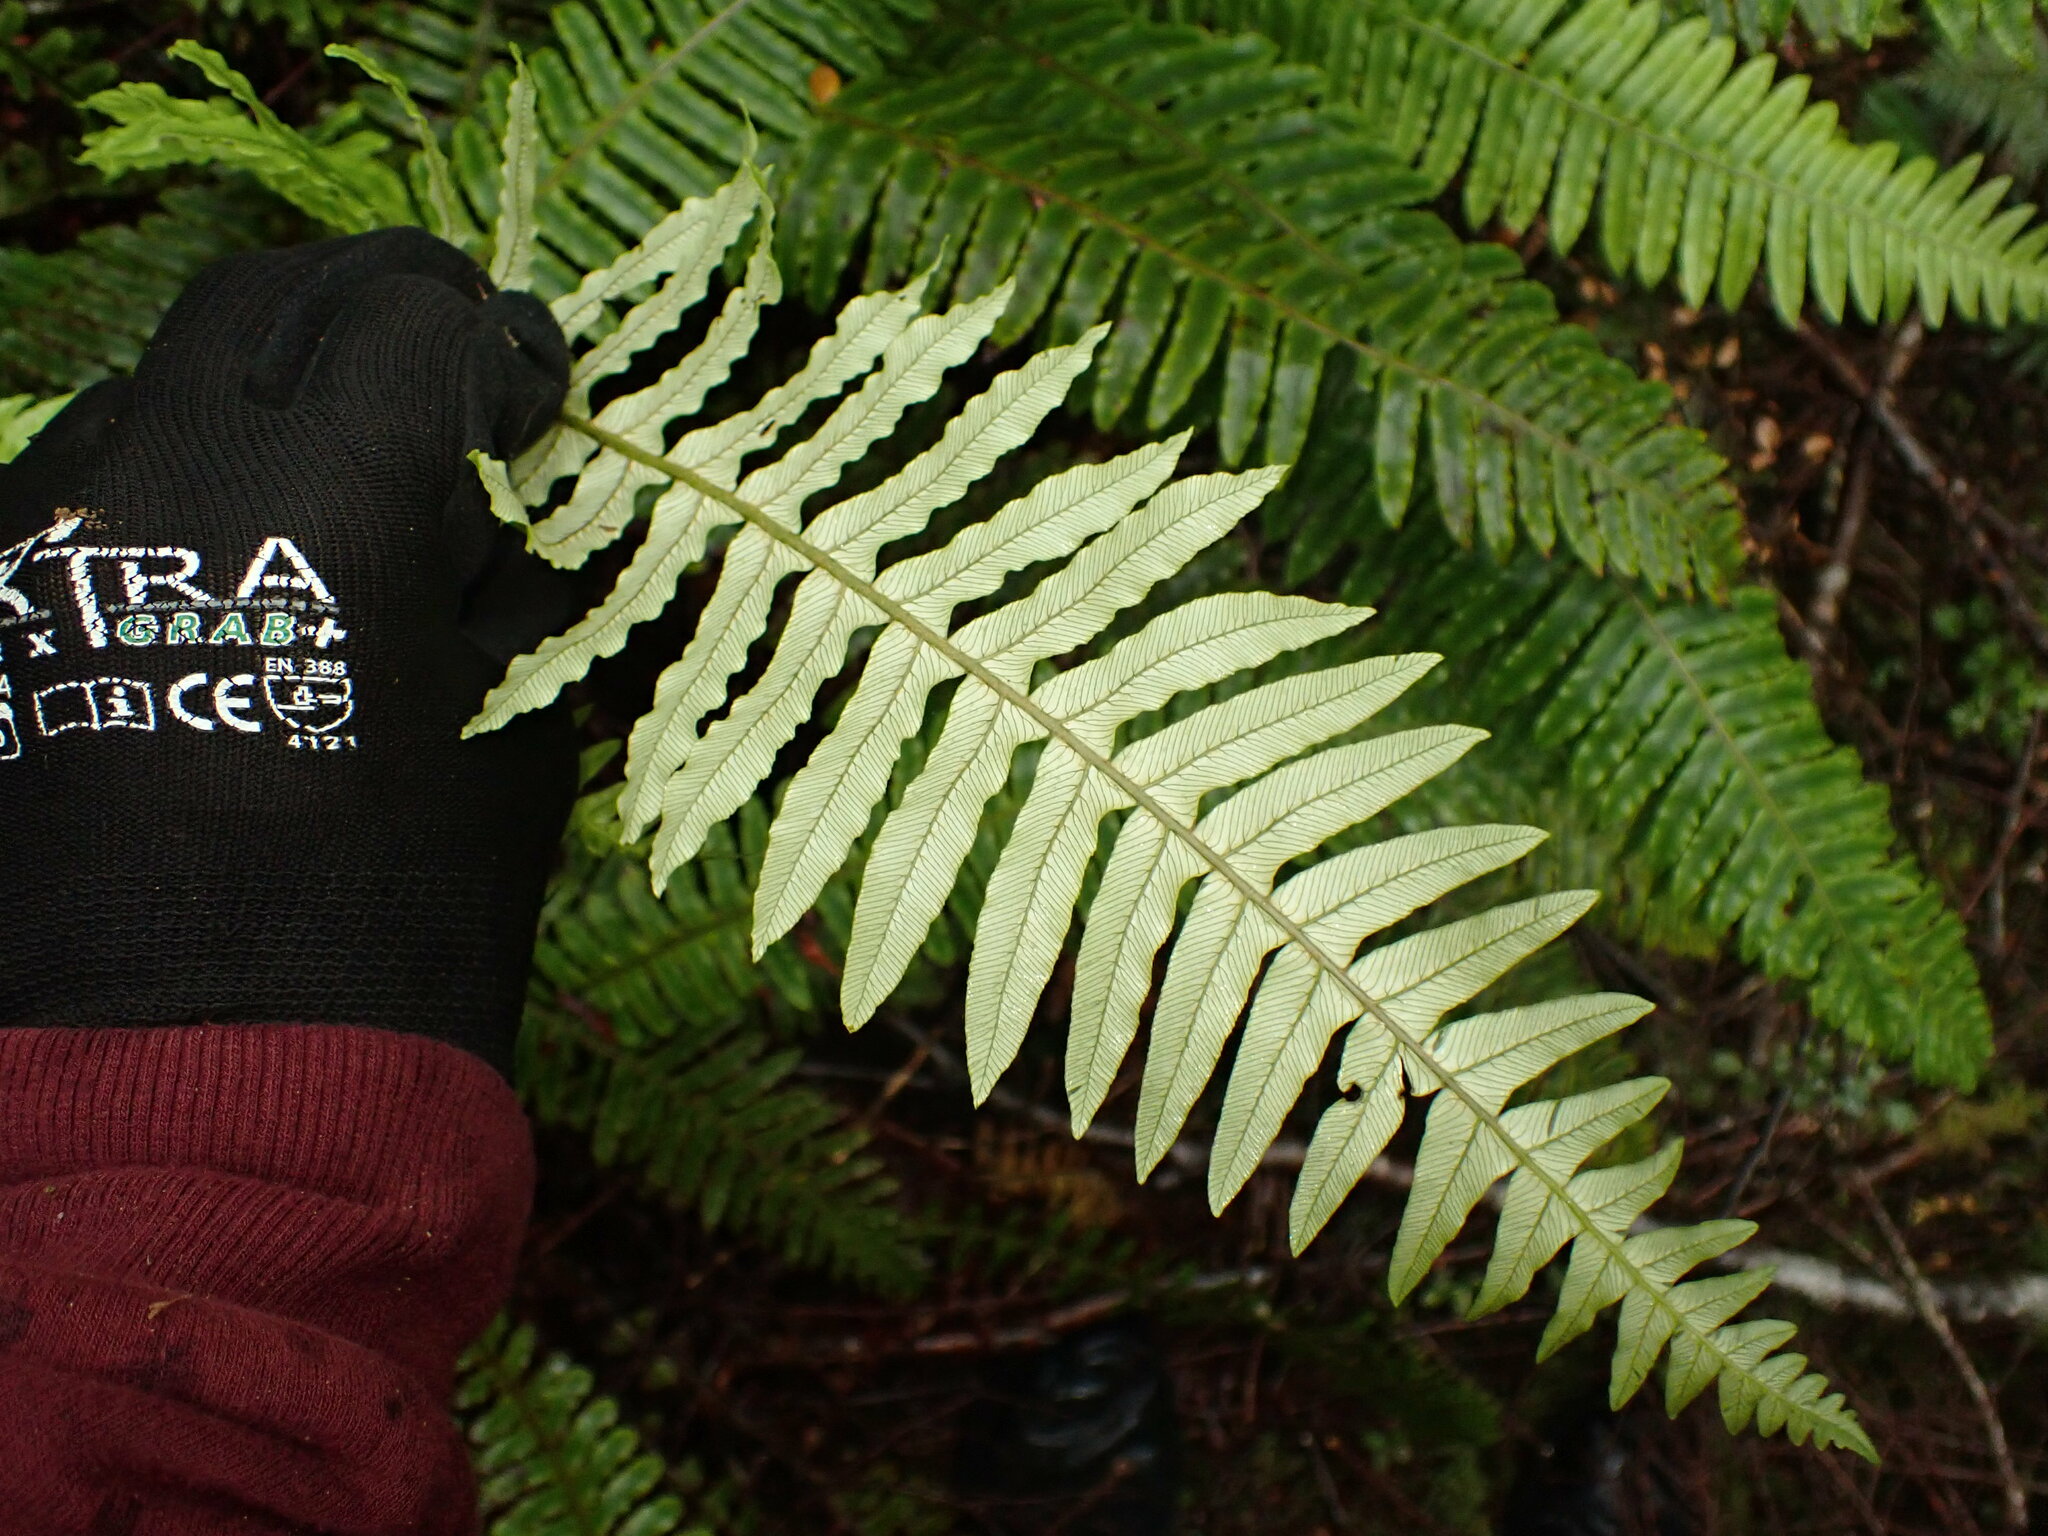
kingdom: Plantae
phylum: Tracheophyta
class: Polypodiopsida
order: Polypodiales
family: Blechnaceae
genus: Lomaria
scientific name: Lomaria discolor
